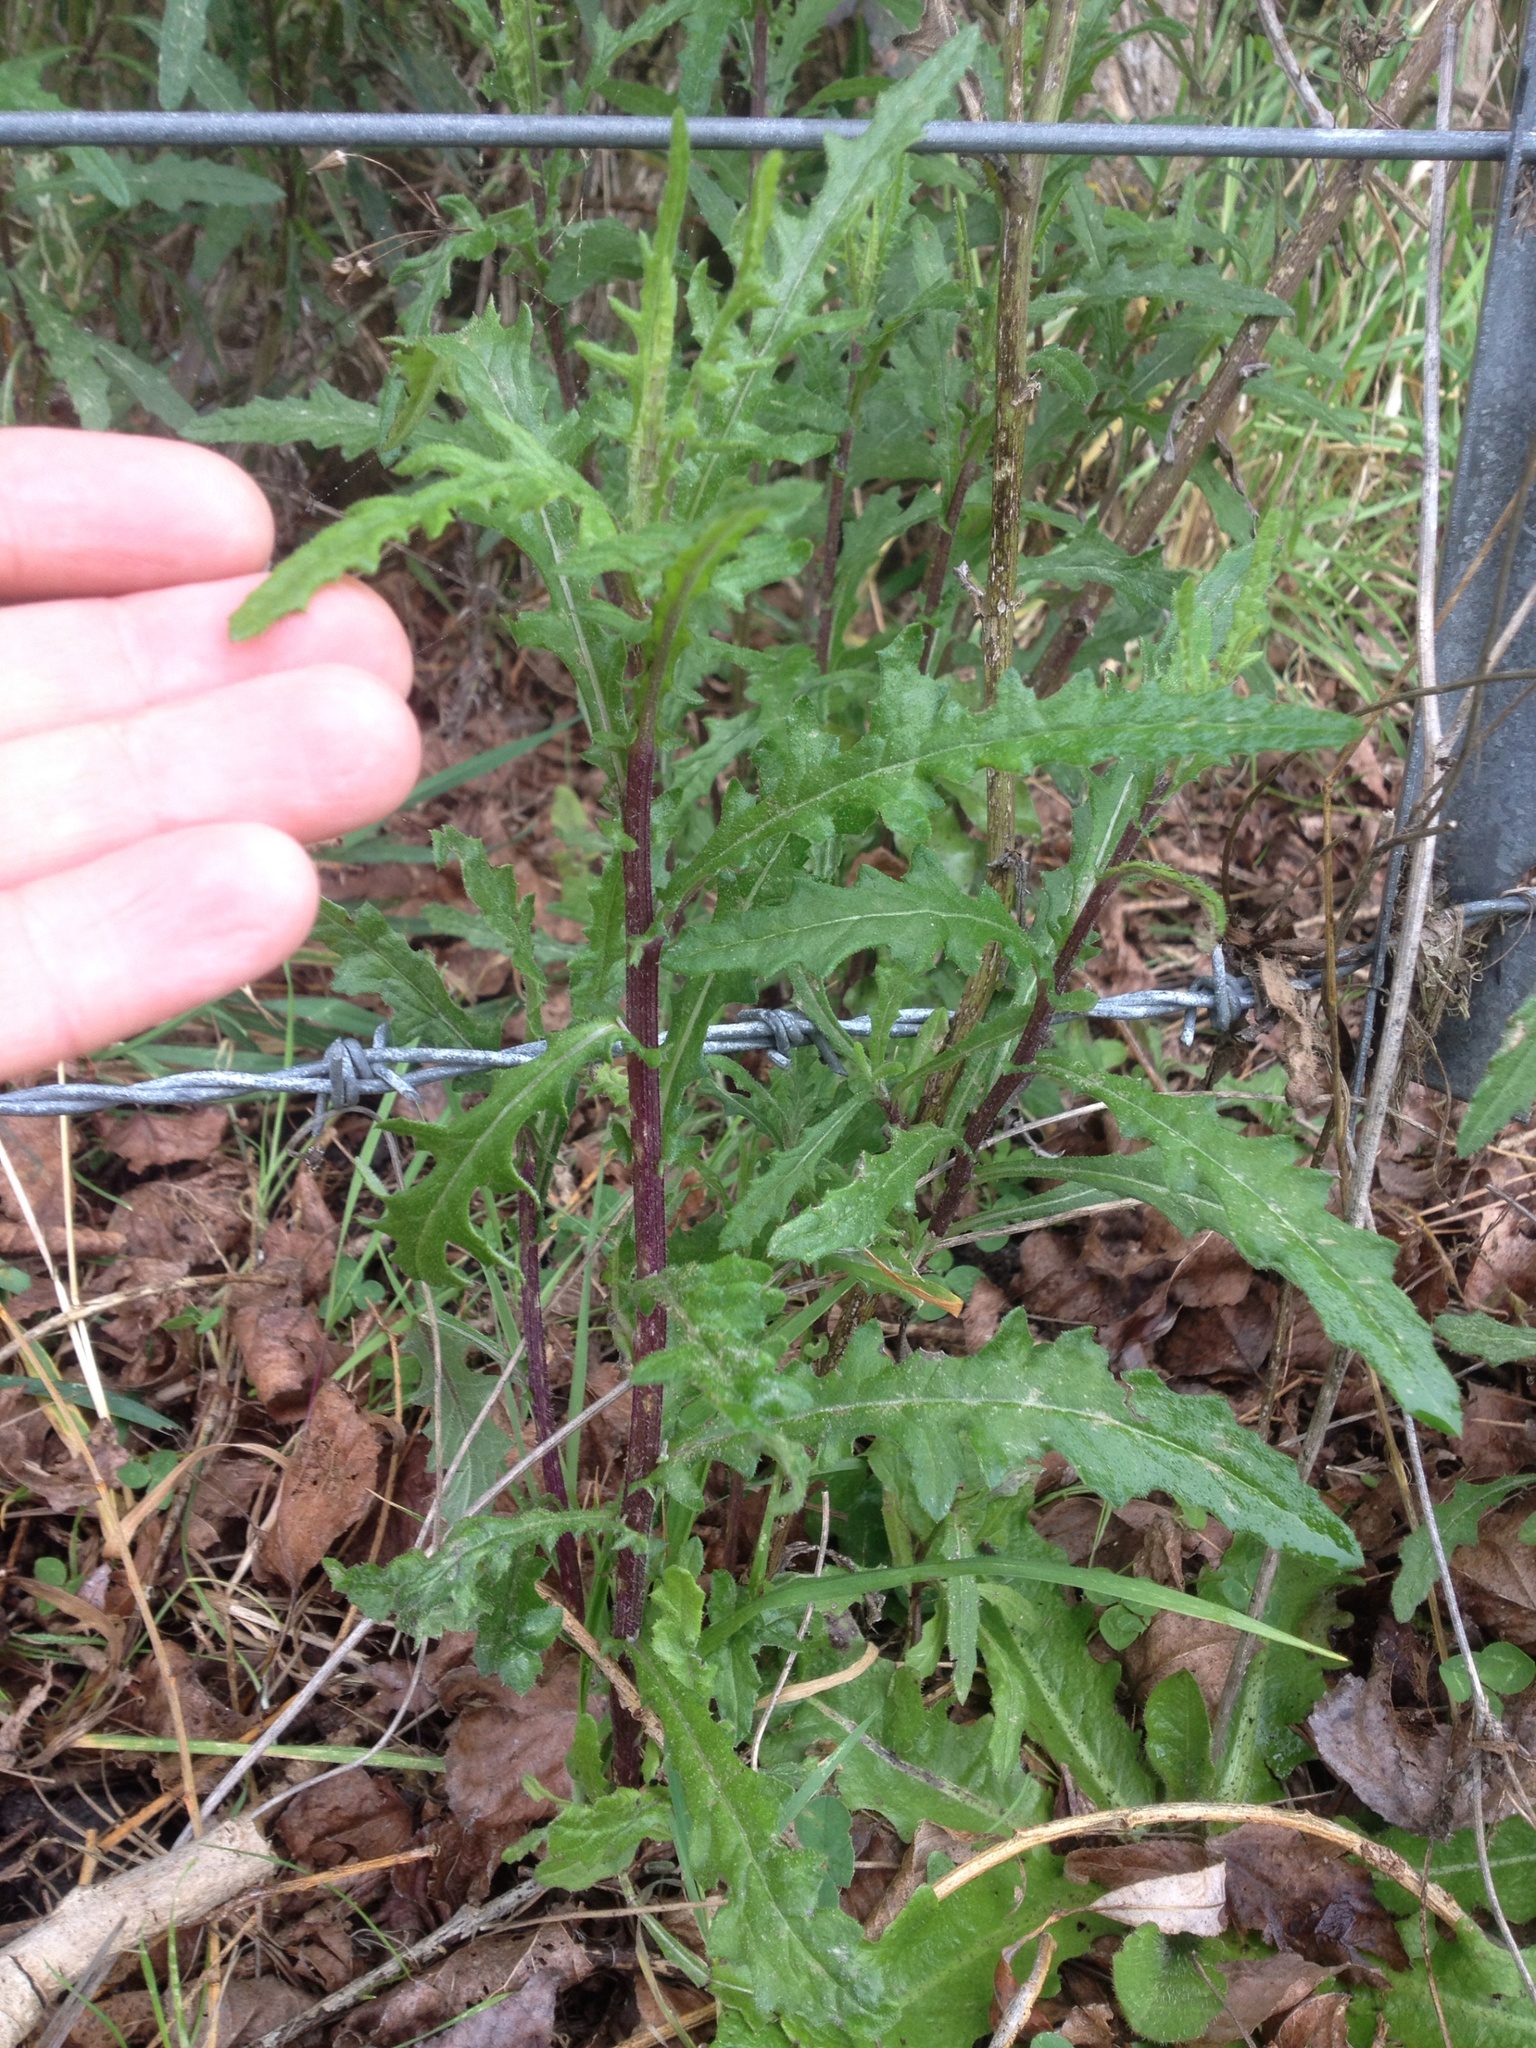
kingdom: Plantae
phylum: Tracheophyta
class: Magnoliopsida
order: Asterales
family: Asteraceae
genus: Senecio
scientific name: Senecio hispidulus
